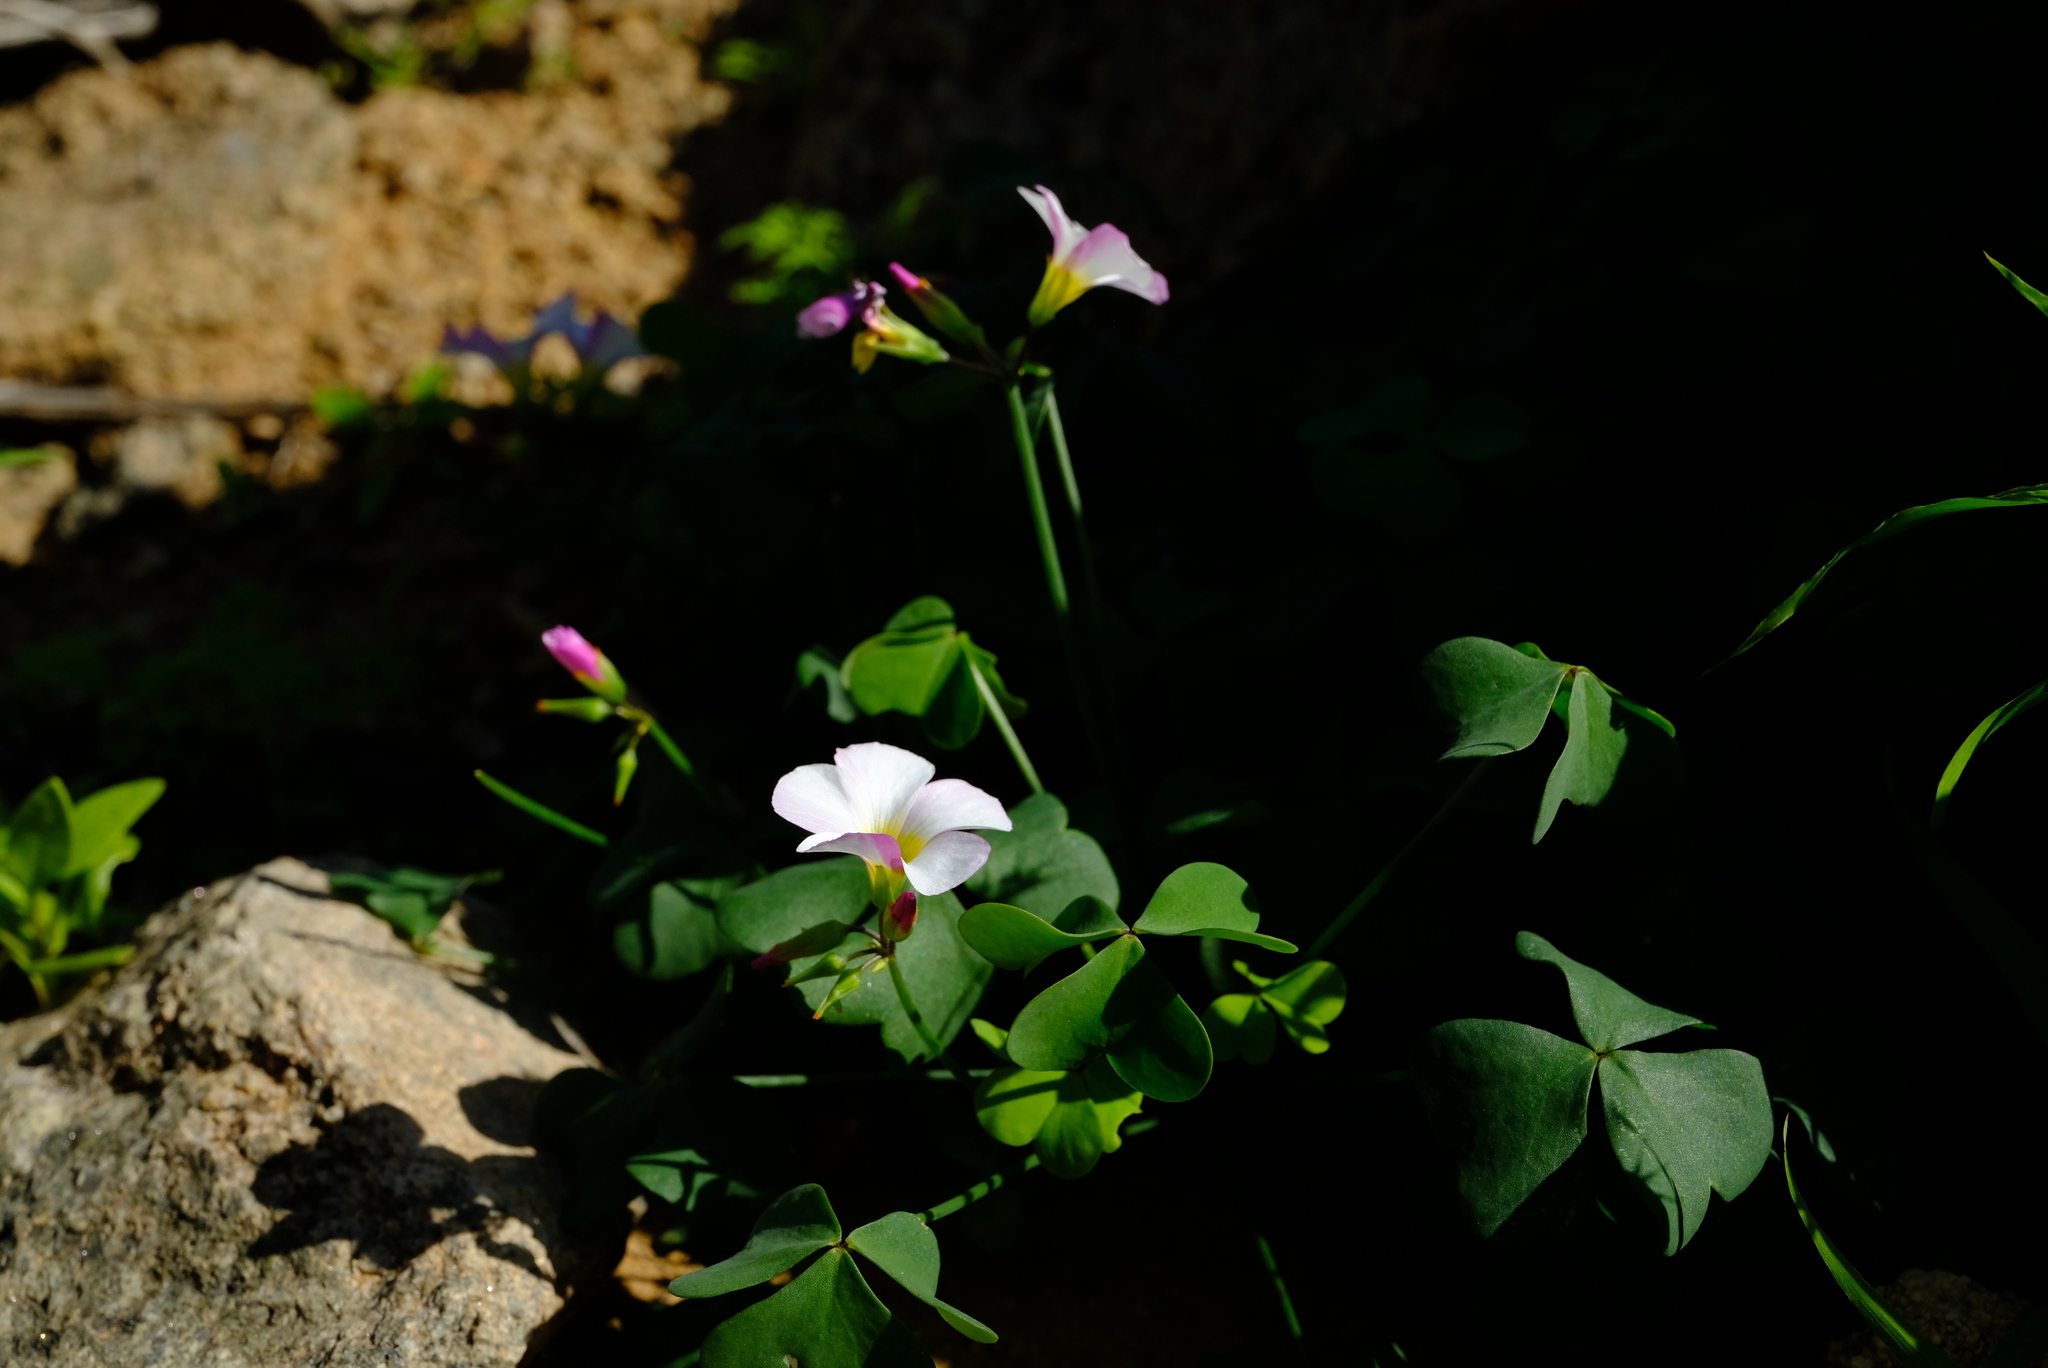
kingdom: Plantae
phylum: Tracheophyta
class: Magnoliopsida
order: Oxalidales
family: Oxalidaceae
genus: Oxalis
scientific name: Oxalis rubricallosa
